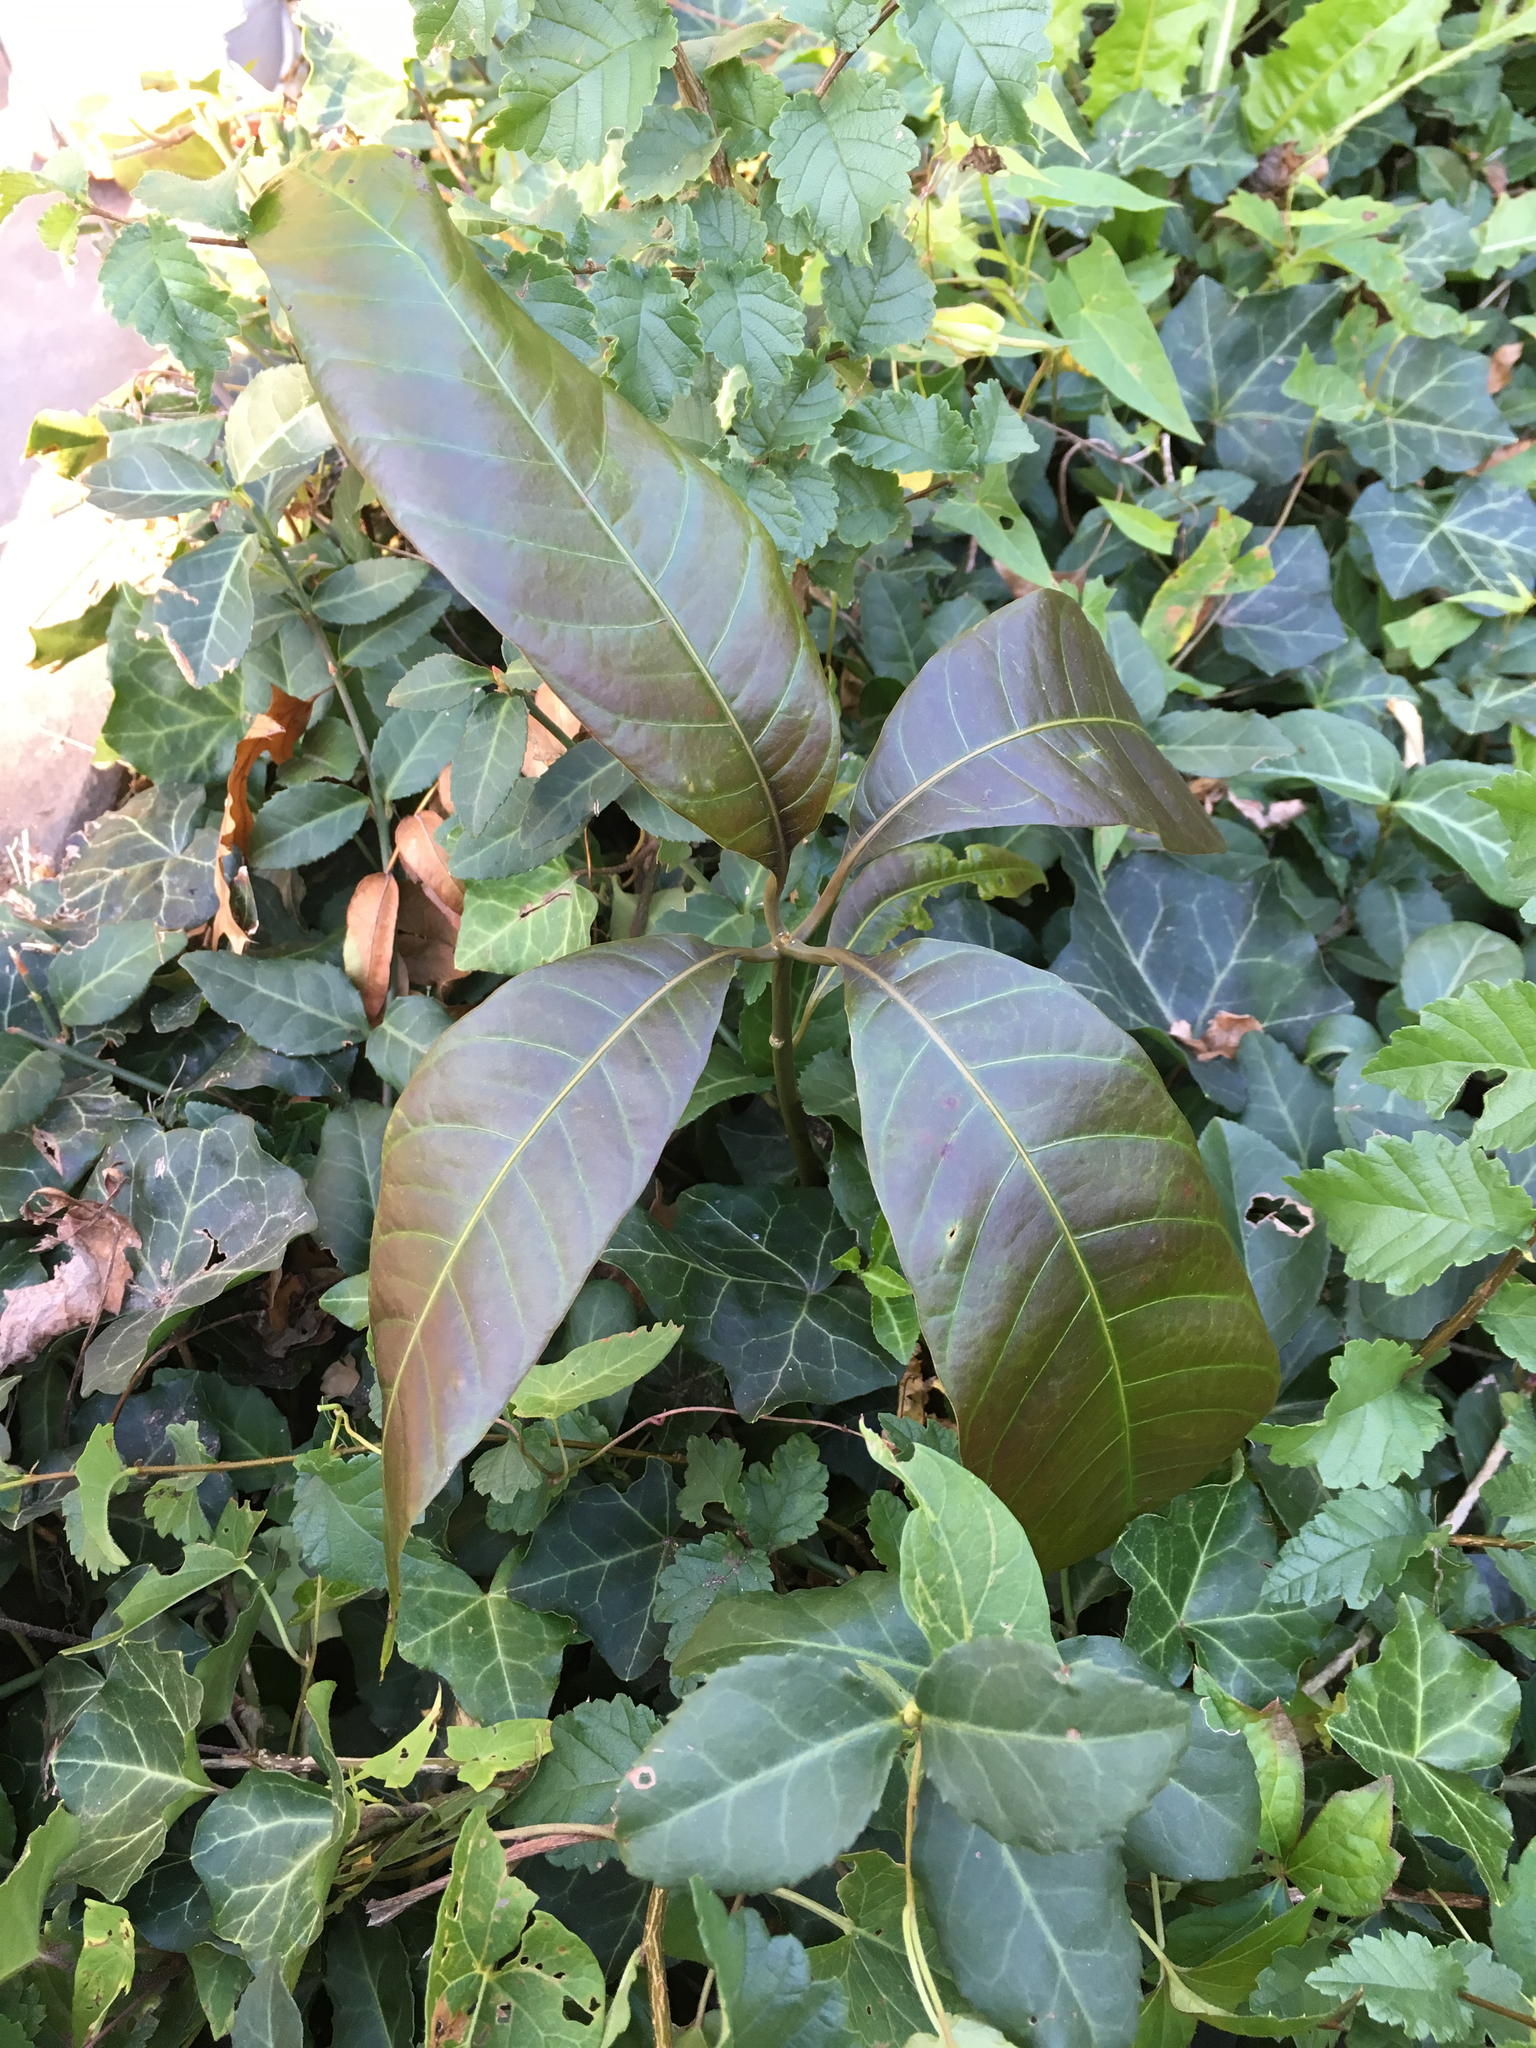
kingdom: Plantae
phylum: Tracheophyta
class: Magnoliopsida
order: Fagales
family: Fagaceae
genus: Quercus
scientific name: Quercus imbricaria
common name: Shingle oak
